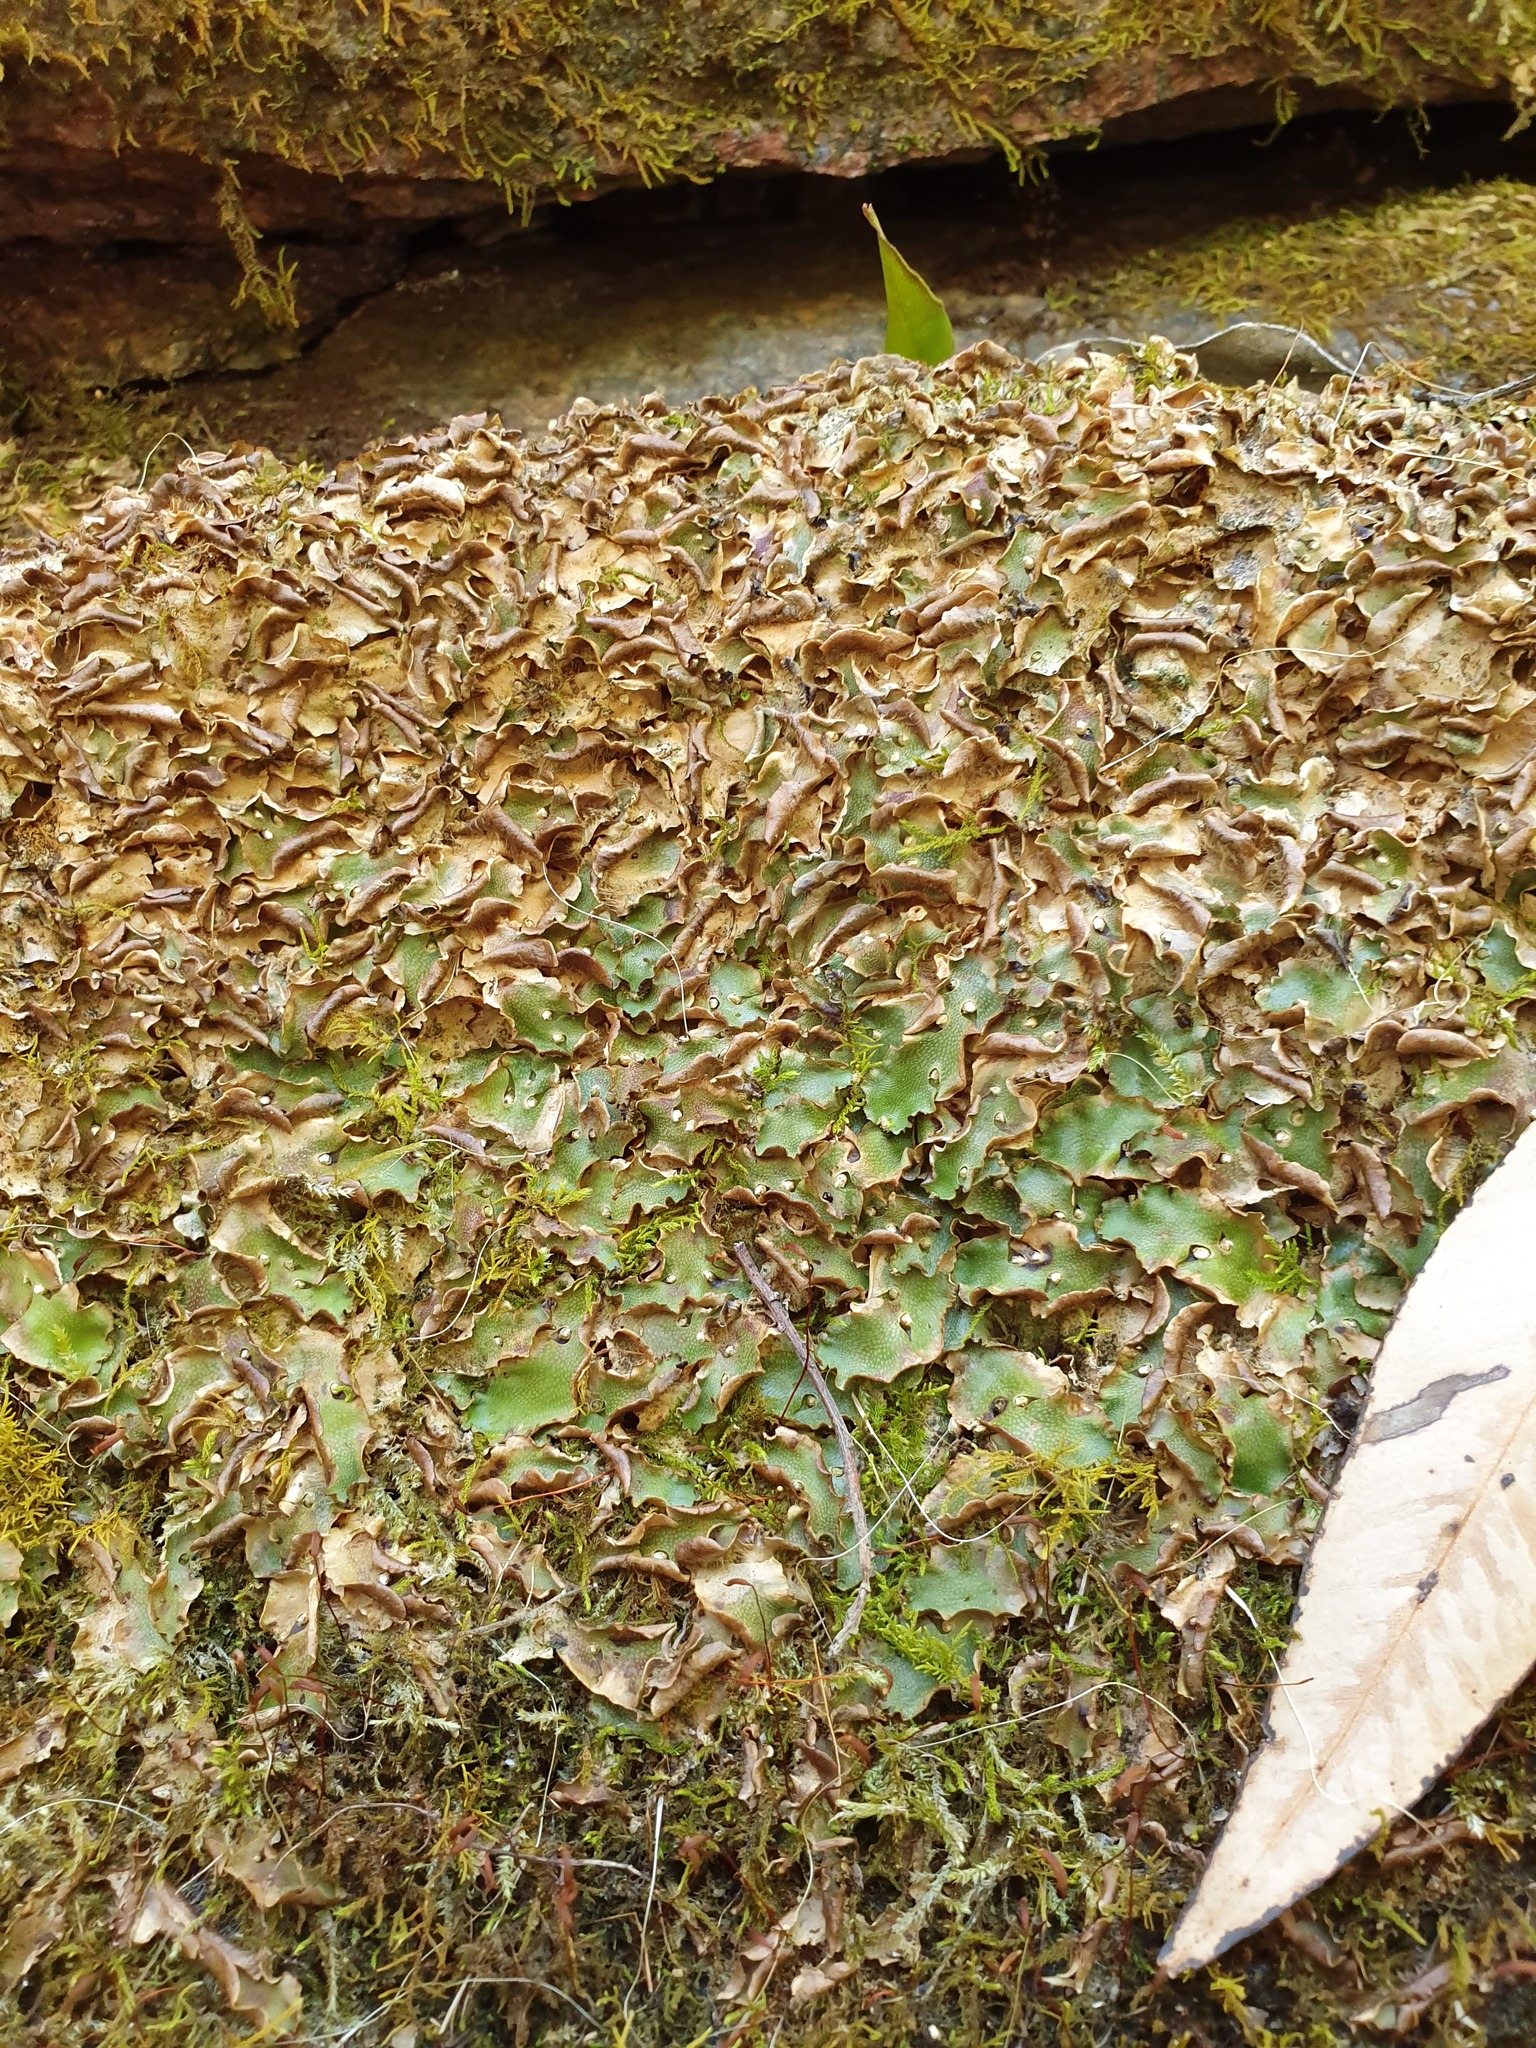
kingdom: Plantae
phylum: Marchantiophyta
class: Marchantiopsida
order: Lunulariales
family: Lunulariaceae
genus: Lunularia
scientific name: Lunularia cruciata
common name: Crescent-cup liverwort
